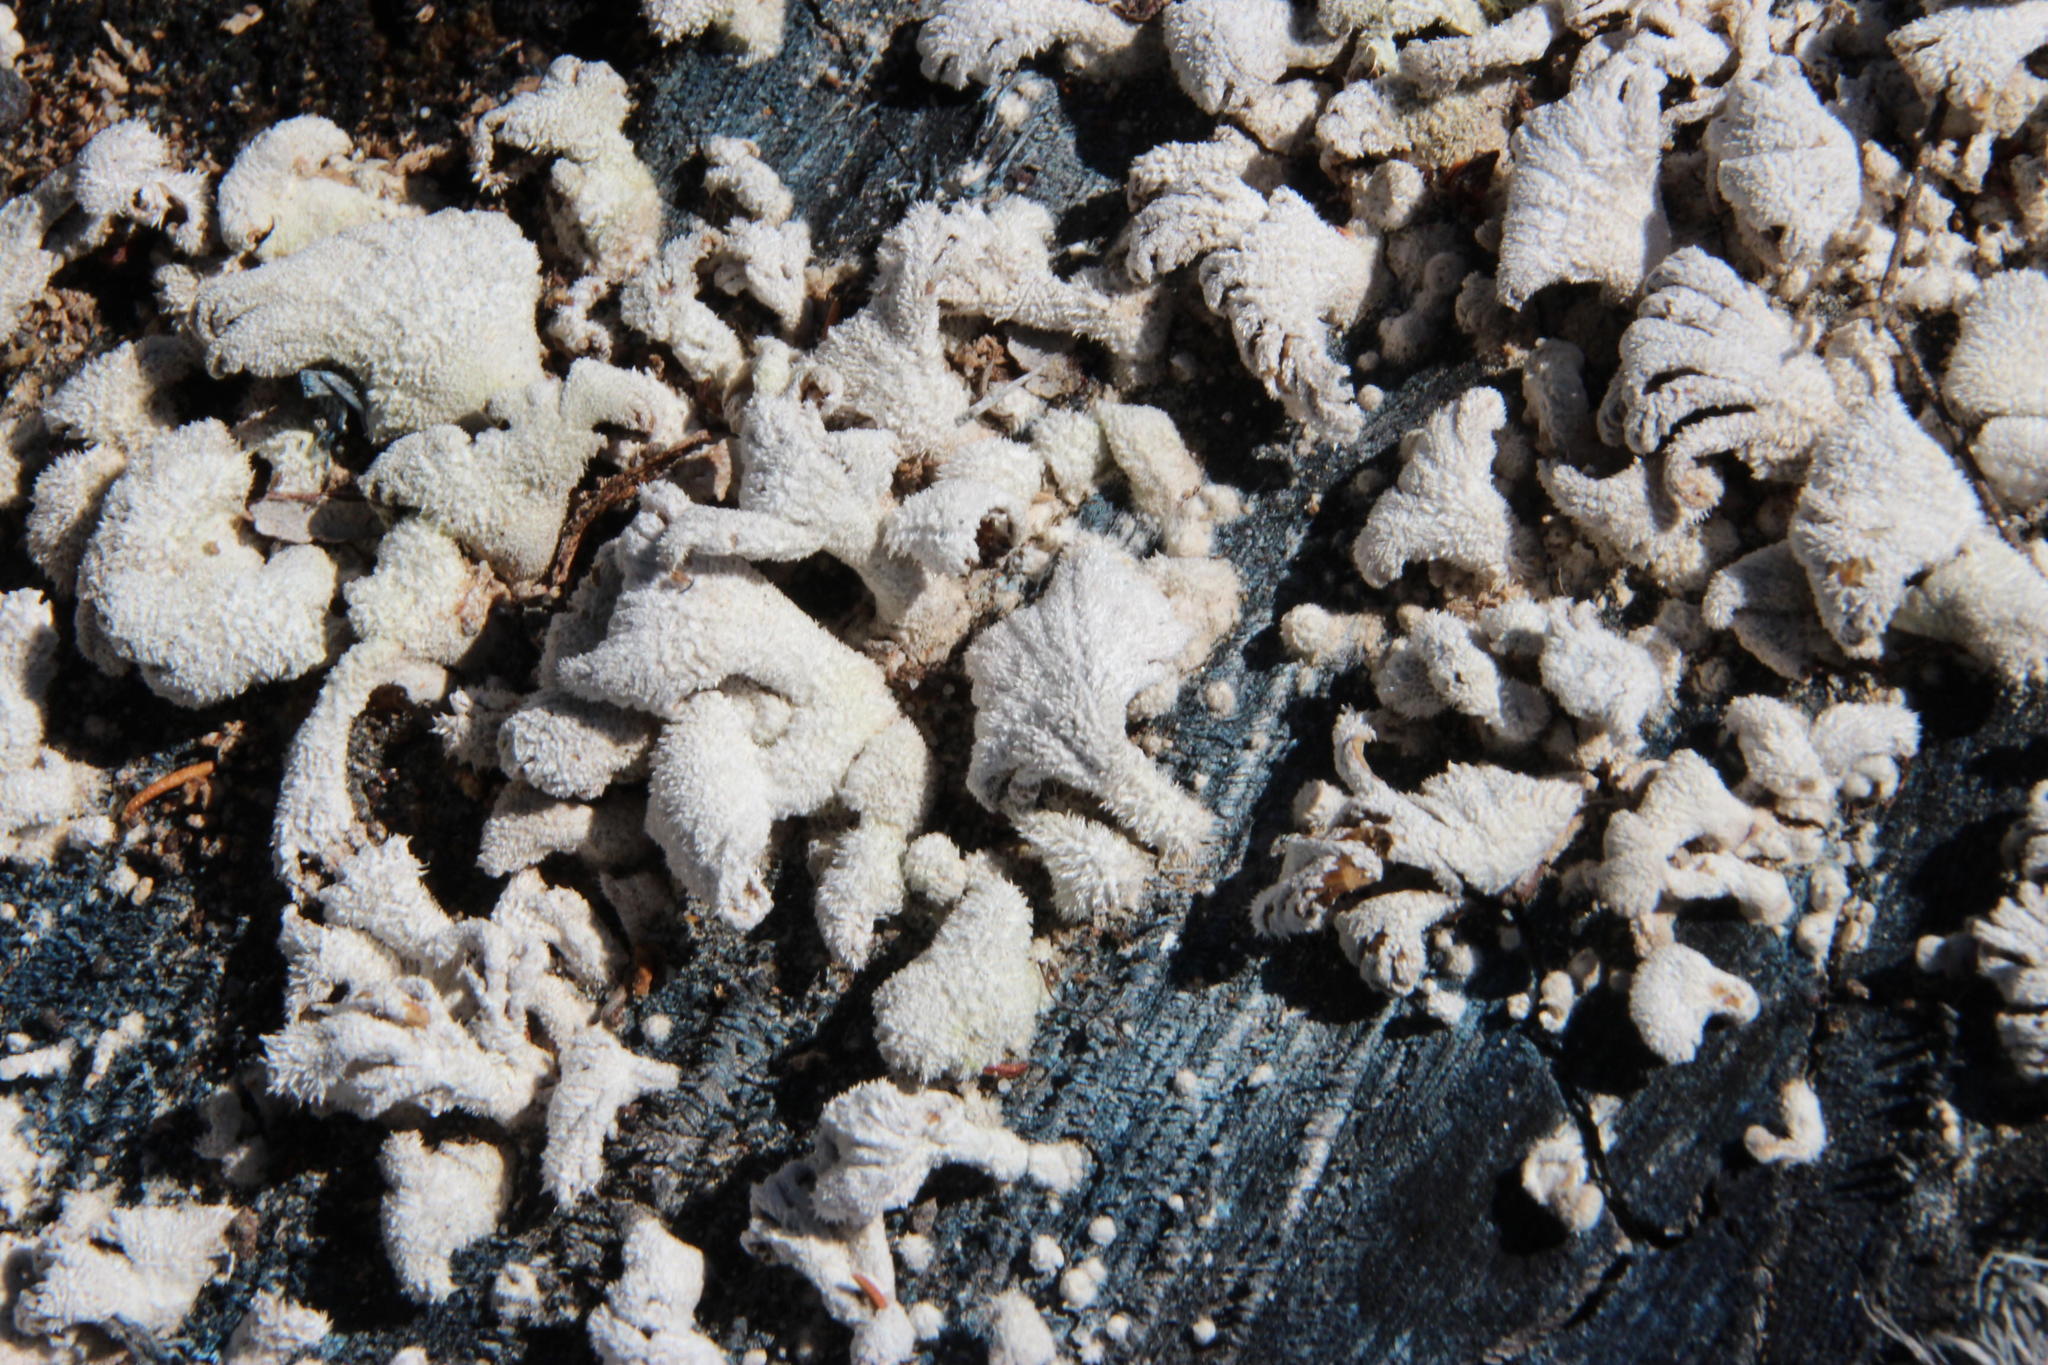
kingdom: Fungi
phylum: Basidiomycota
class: Agaricomycetes
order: Agaricales
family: Schizophyllaceae
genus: Schizophyllum
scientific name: Schizophyllum commune
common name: Common porecrust
